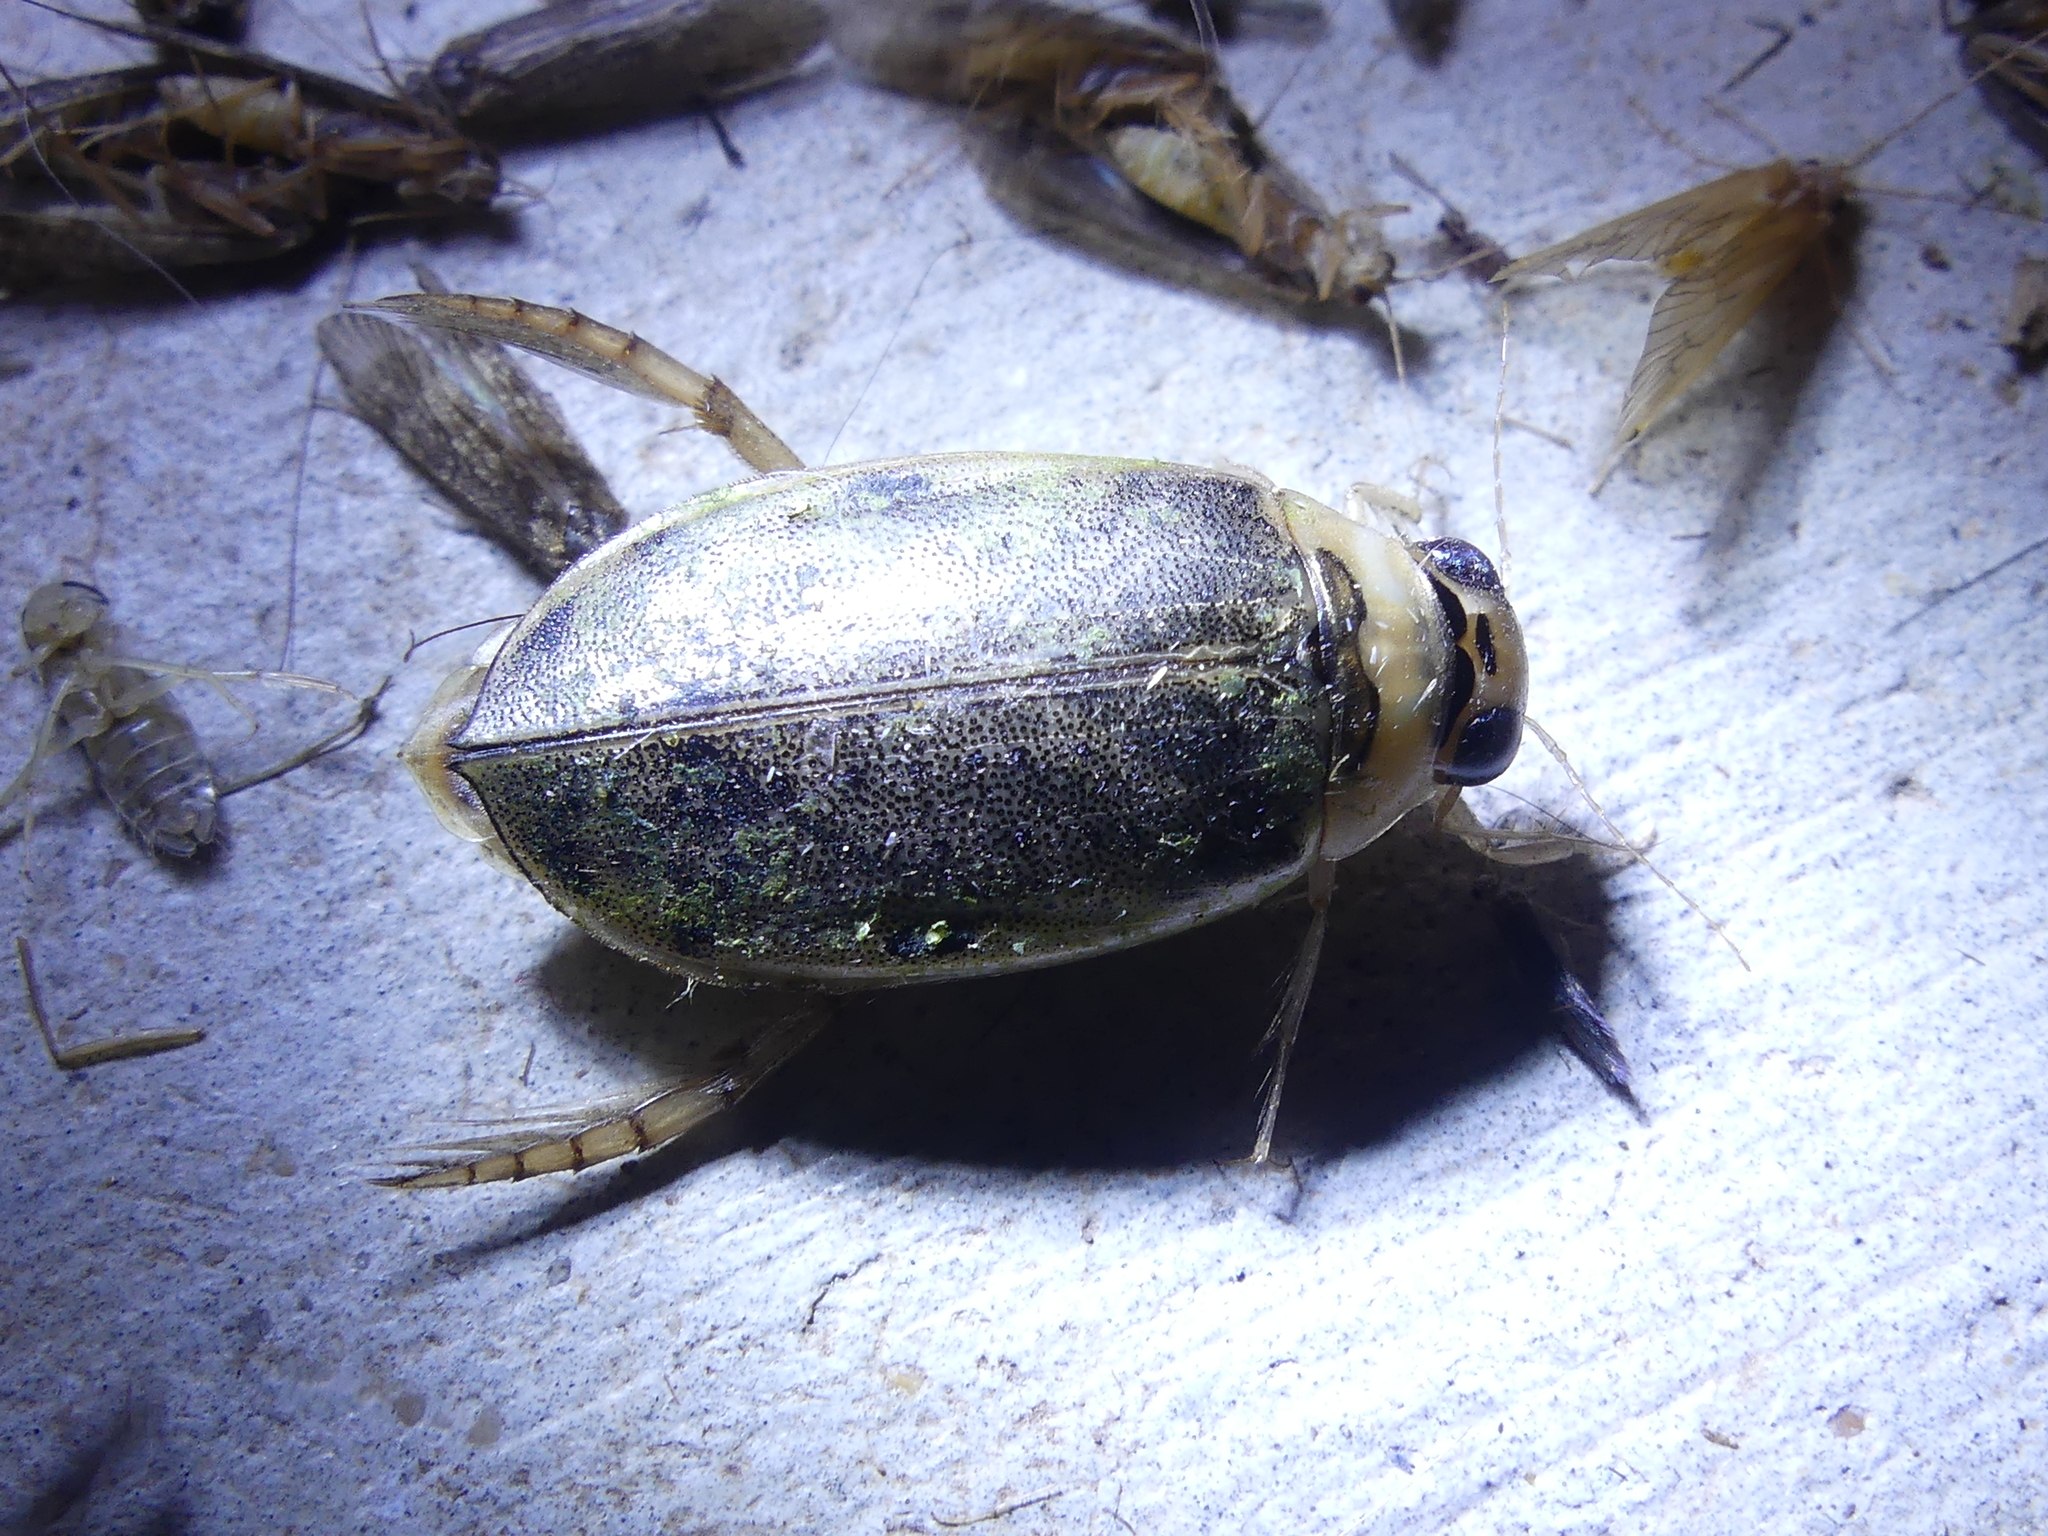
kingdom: Animalia
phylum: Arthropoda
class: Insecta
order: Coleoptera
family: Dytiscidae
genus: Eretes
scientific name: Eretes
